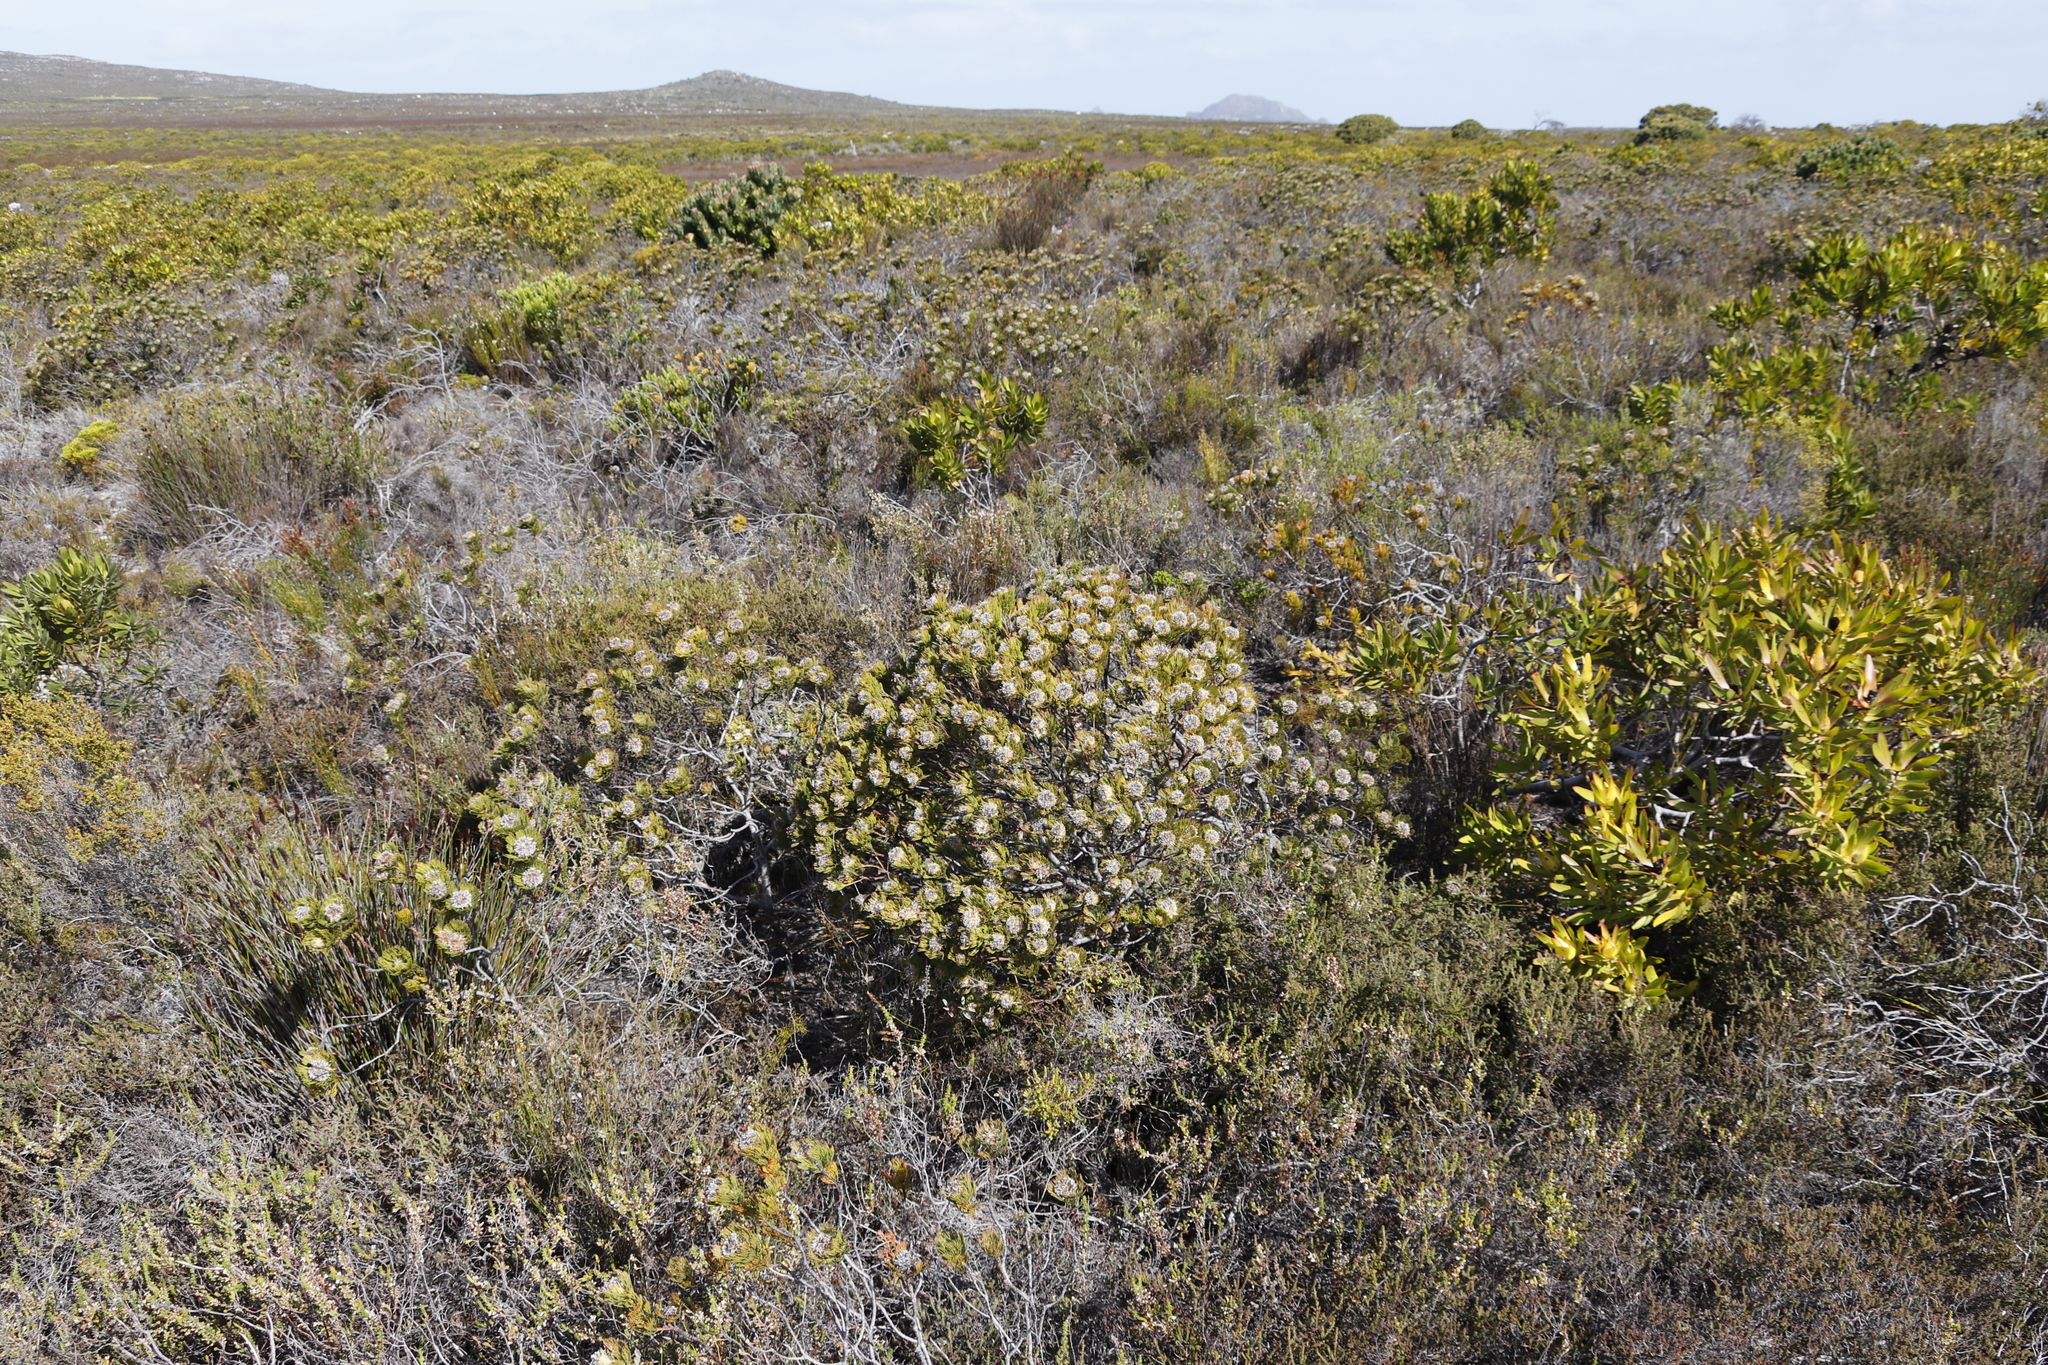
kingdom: Plantae
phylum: Tracheophyta
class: Magnoliopsida
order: Proteales
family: Proteaceae
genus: Serruria
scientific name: Serruria villosa
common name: Golden spiderhead
